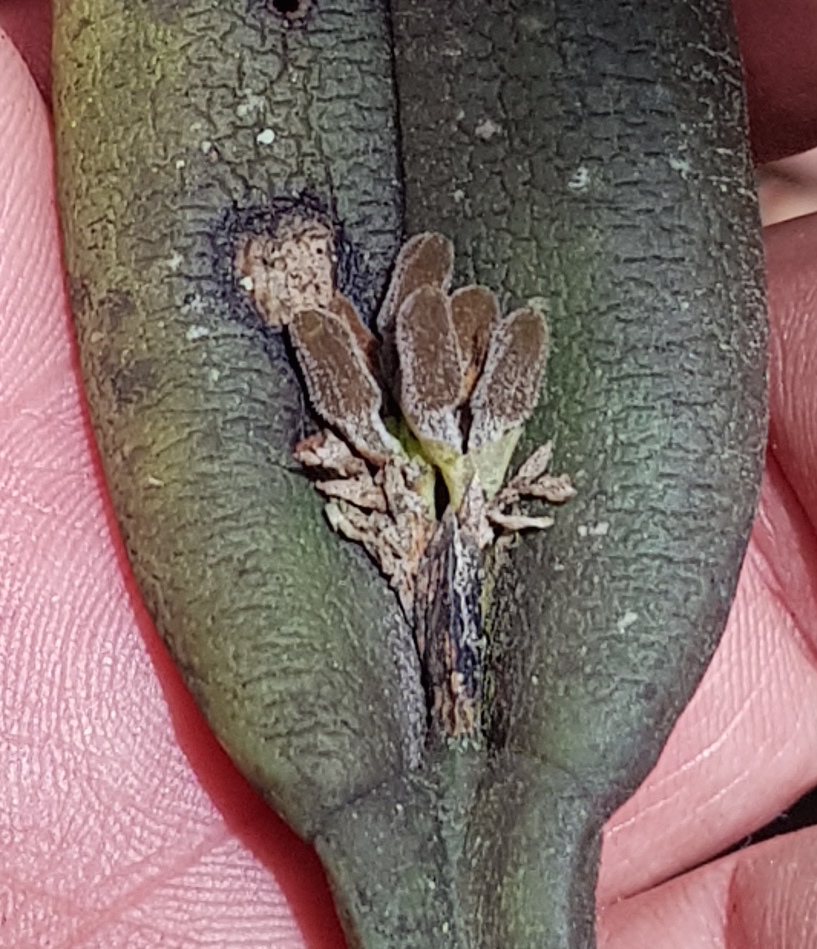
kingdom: Plantae
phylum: Tracheophyta
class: Liliopsida
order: Asparagales
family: Orchidaceae
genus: Acianthera
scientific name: Acianthera chrysantha
